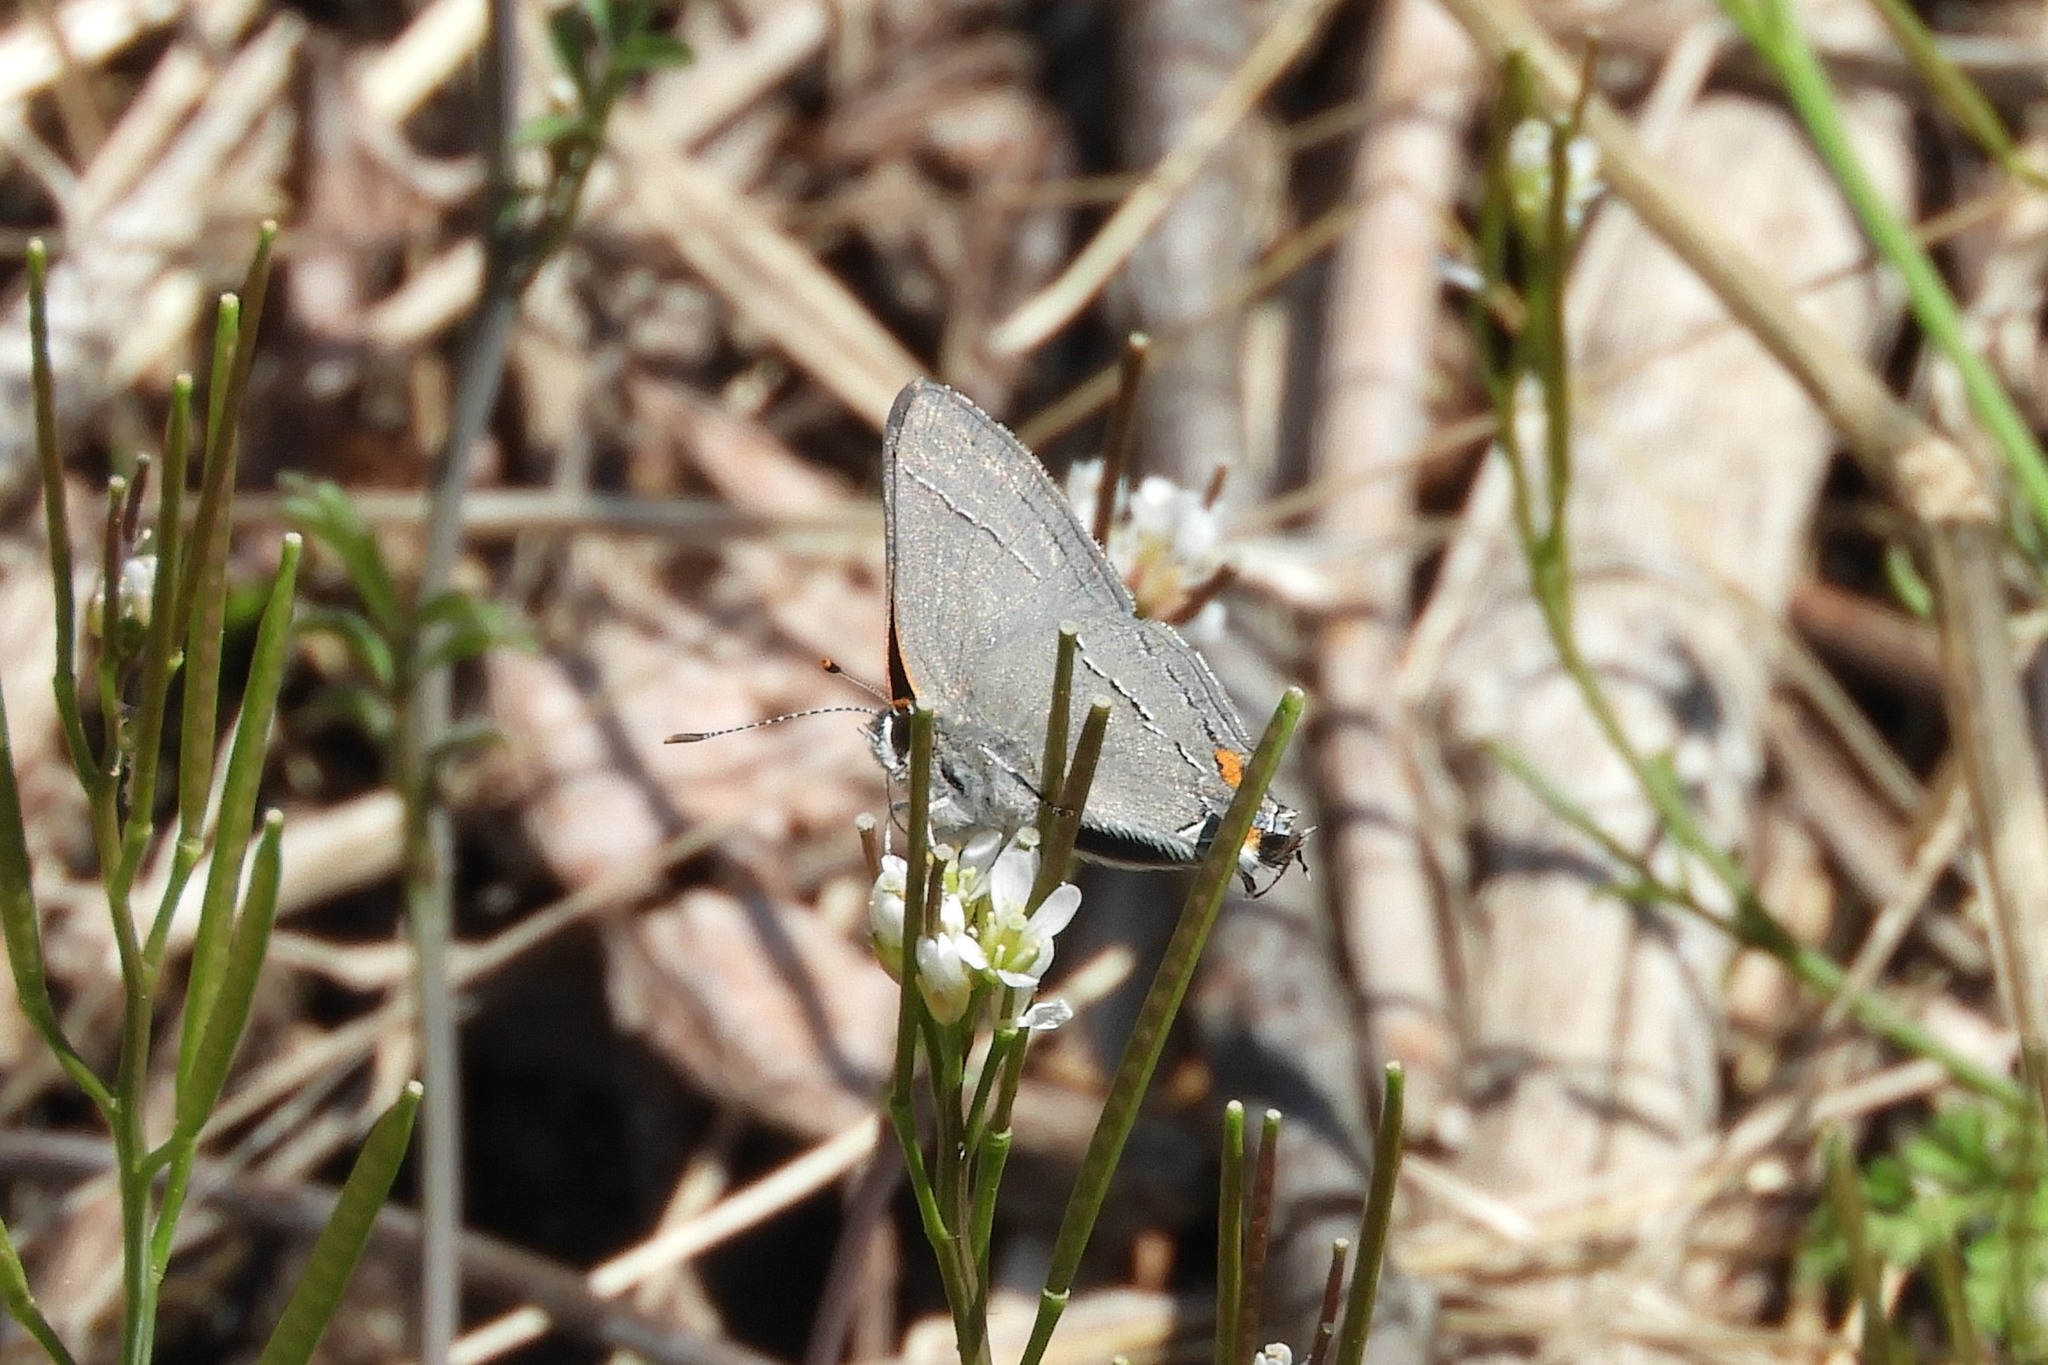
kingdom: Animalia
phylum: Arthropoda
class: Insecta
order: Lepidoptera
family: Lycaenidae
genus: Strymon
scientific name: Strymon melinus
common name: Gray hairstreak
